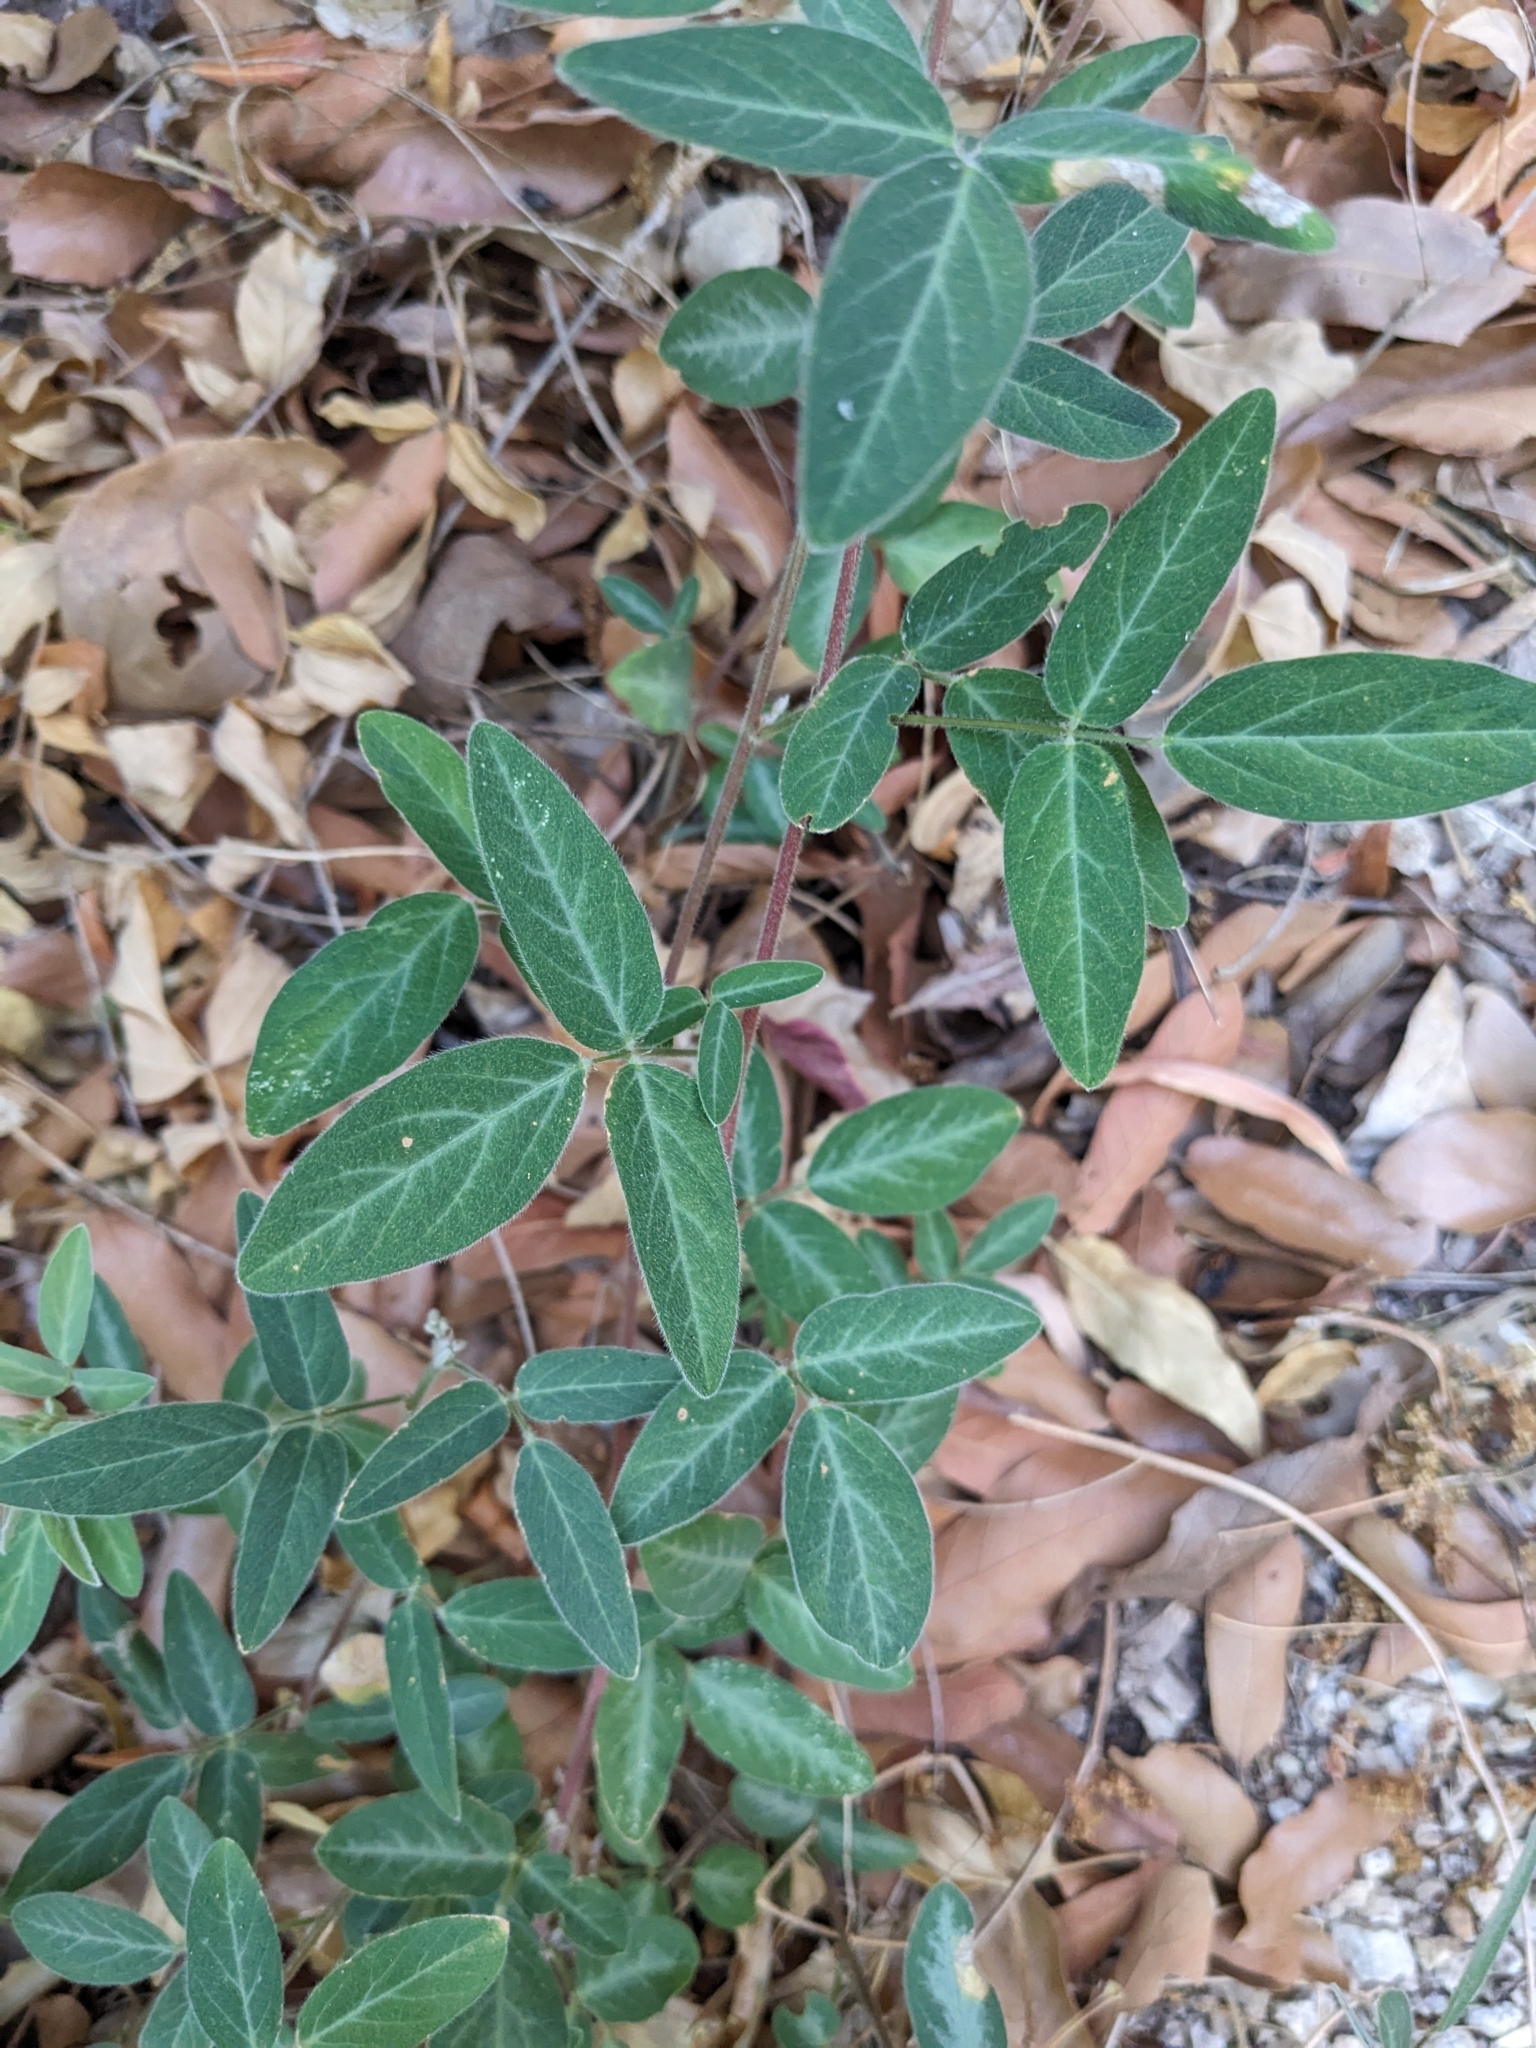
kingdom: Plantae
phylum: Tracheophyta
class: Magnoliopsida
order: Fabales
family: Fabaceae
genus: Desmodium
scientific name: Desmodium batocaulon
